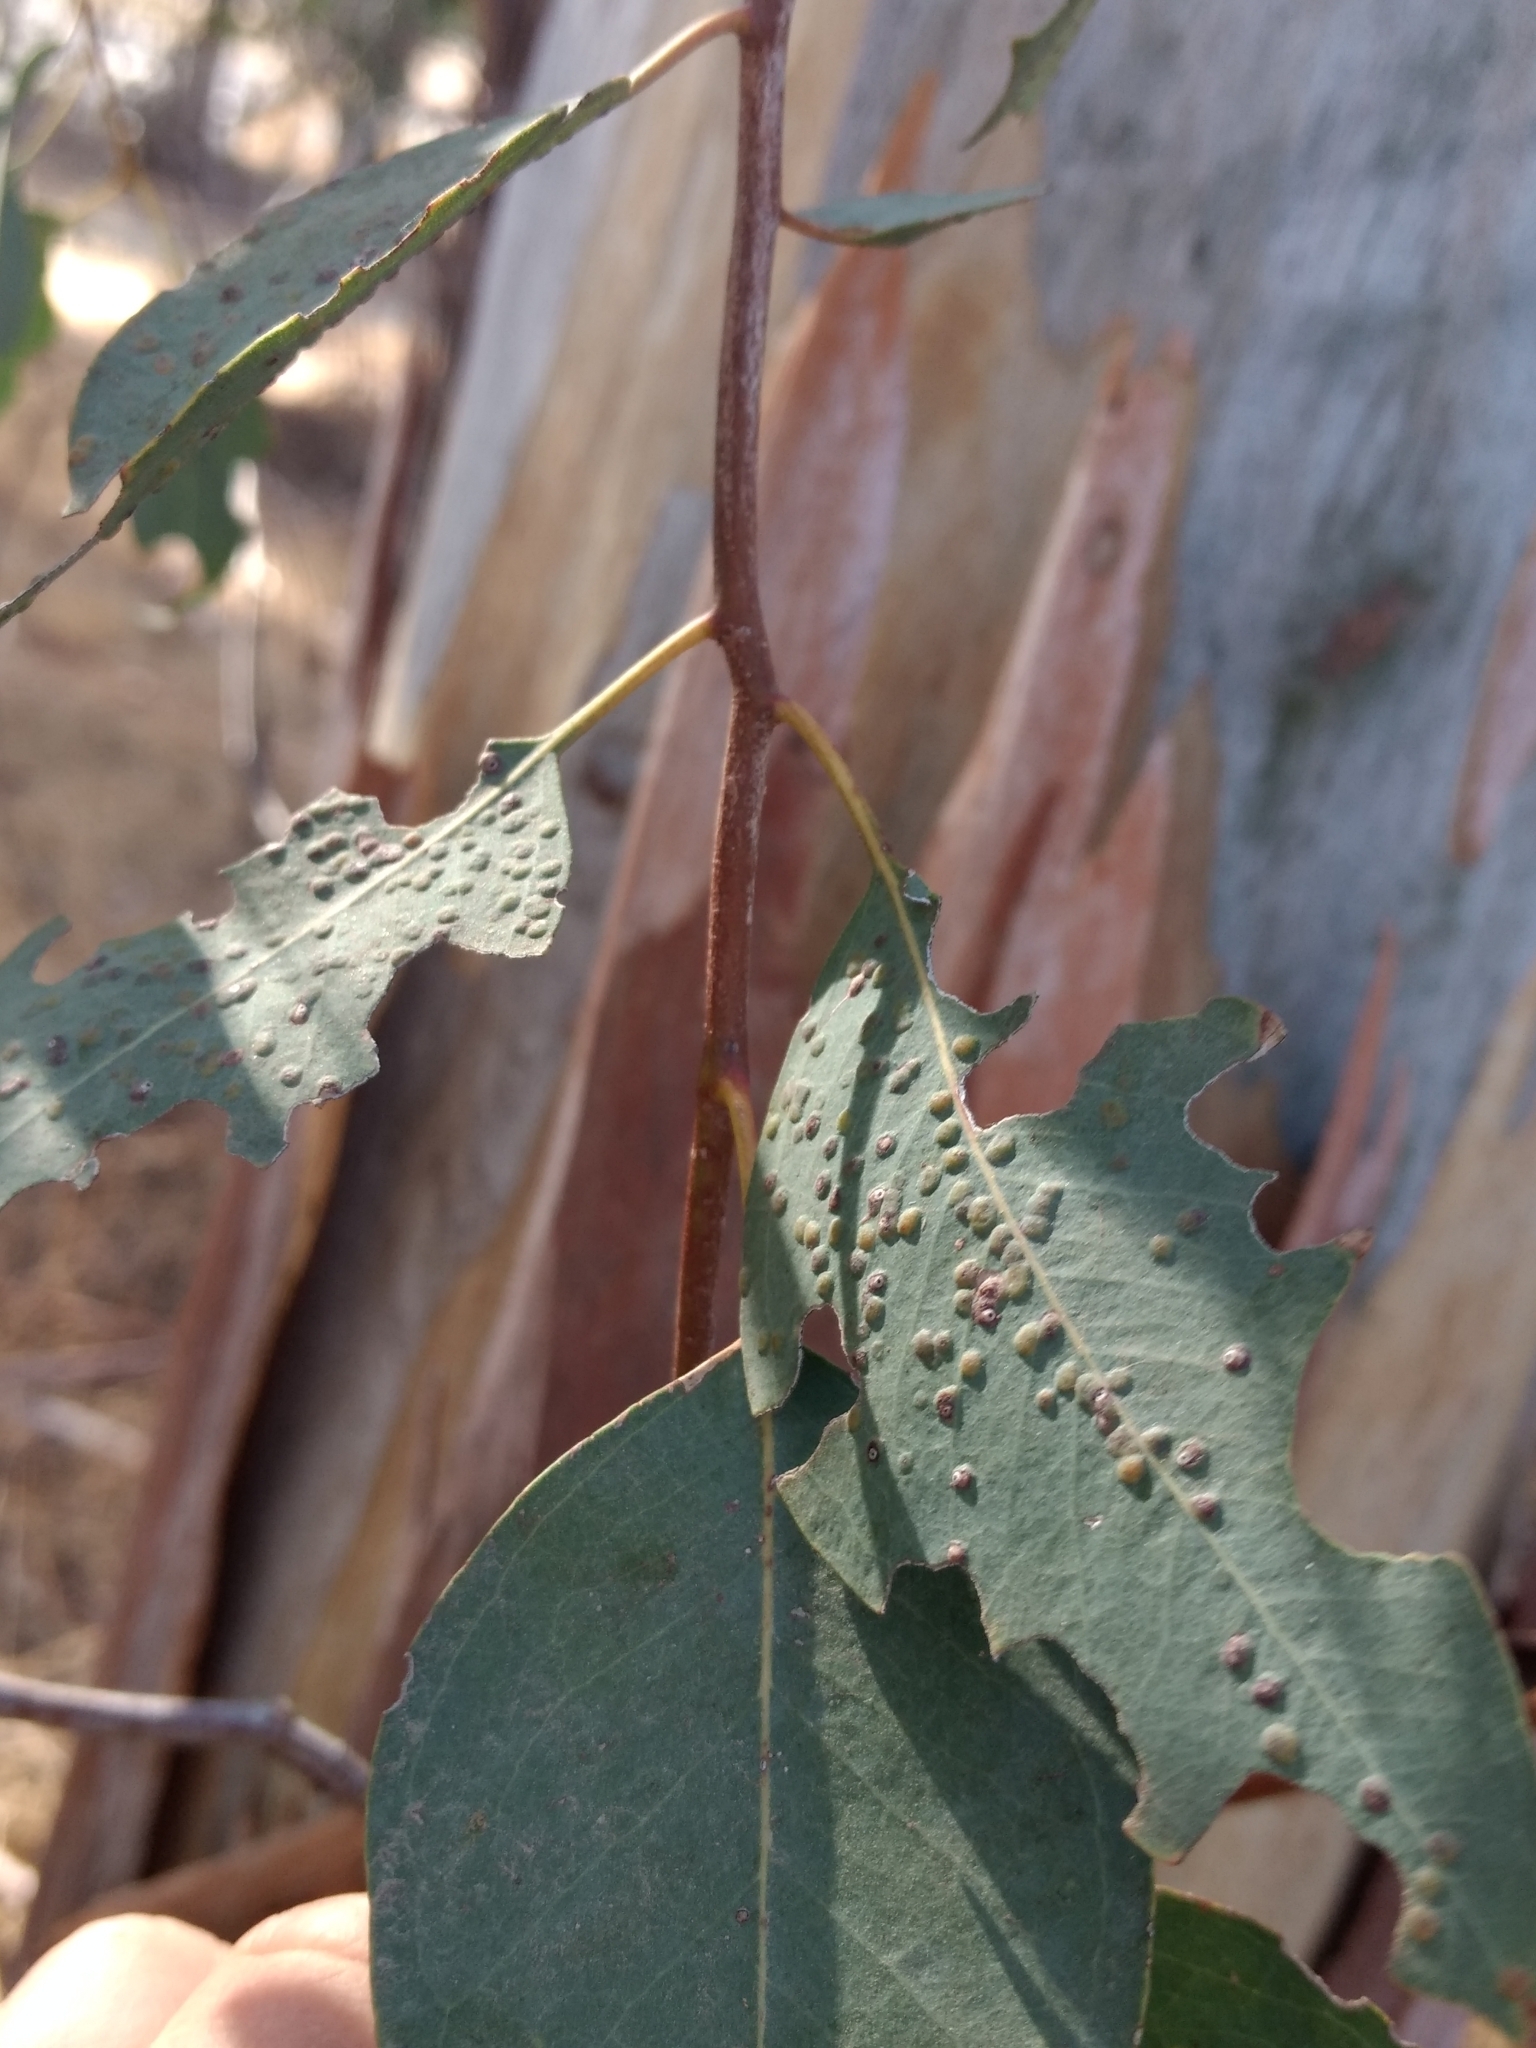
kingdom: Animalia
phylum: Arthropoda
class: Insecta
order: Hymenoptera
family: Eulophidae
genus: Ophelimus
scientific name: Ophelimus maskelli
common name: Gall wasp
